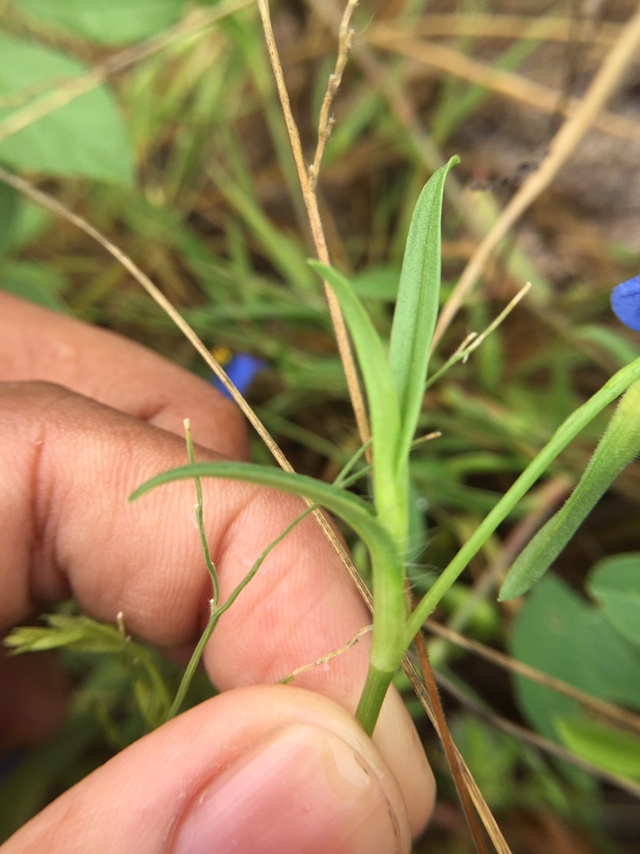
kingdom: Plantae
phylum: Tracheophyta
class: Liliopsida
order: Commelinales
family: Commelinaceae
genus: Commelina
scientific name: Commelina attenuata
